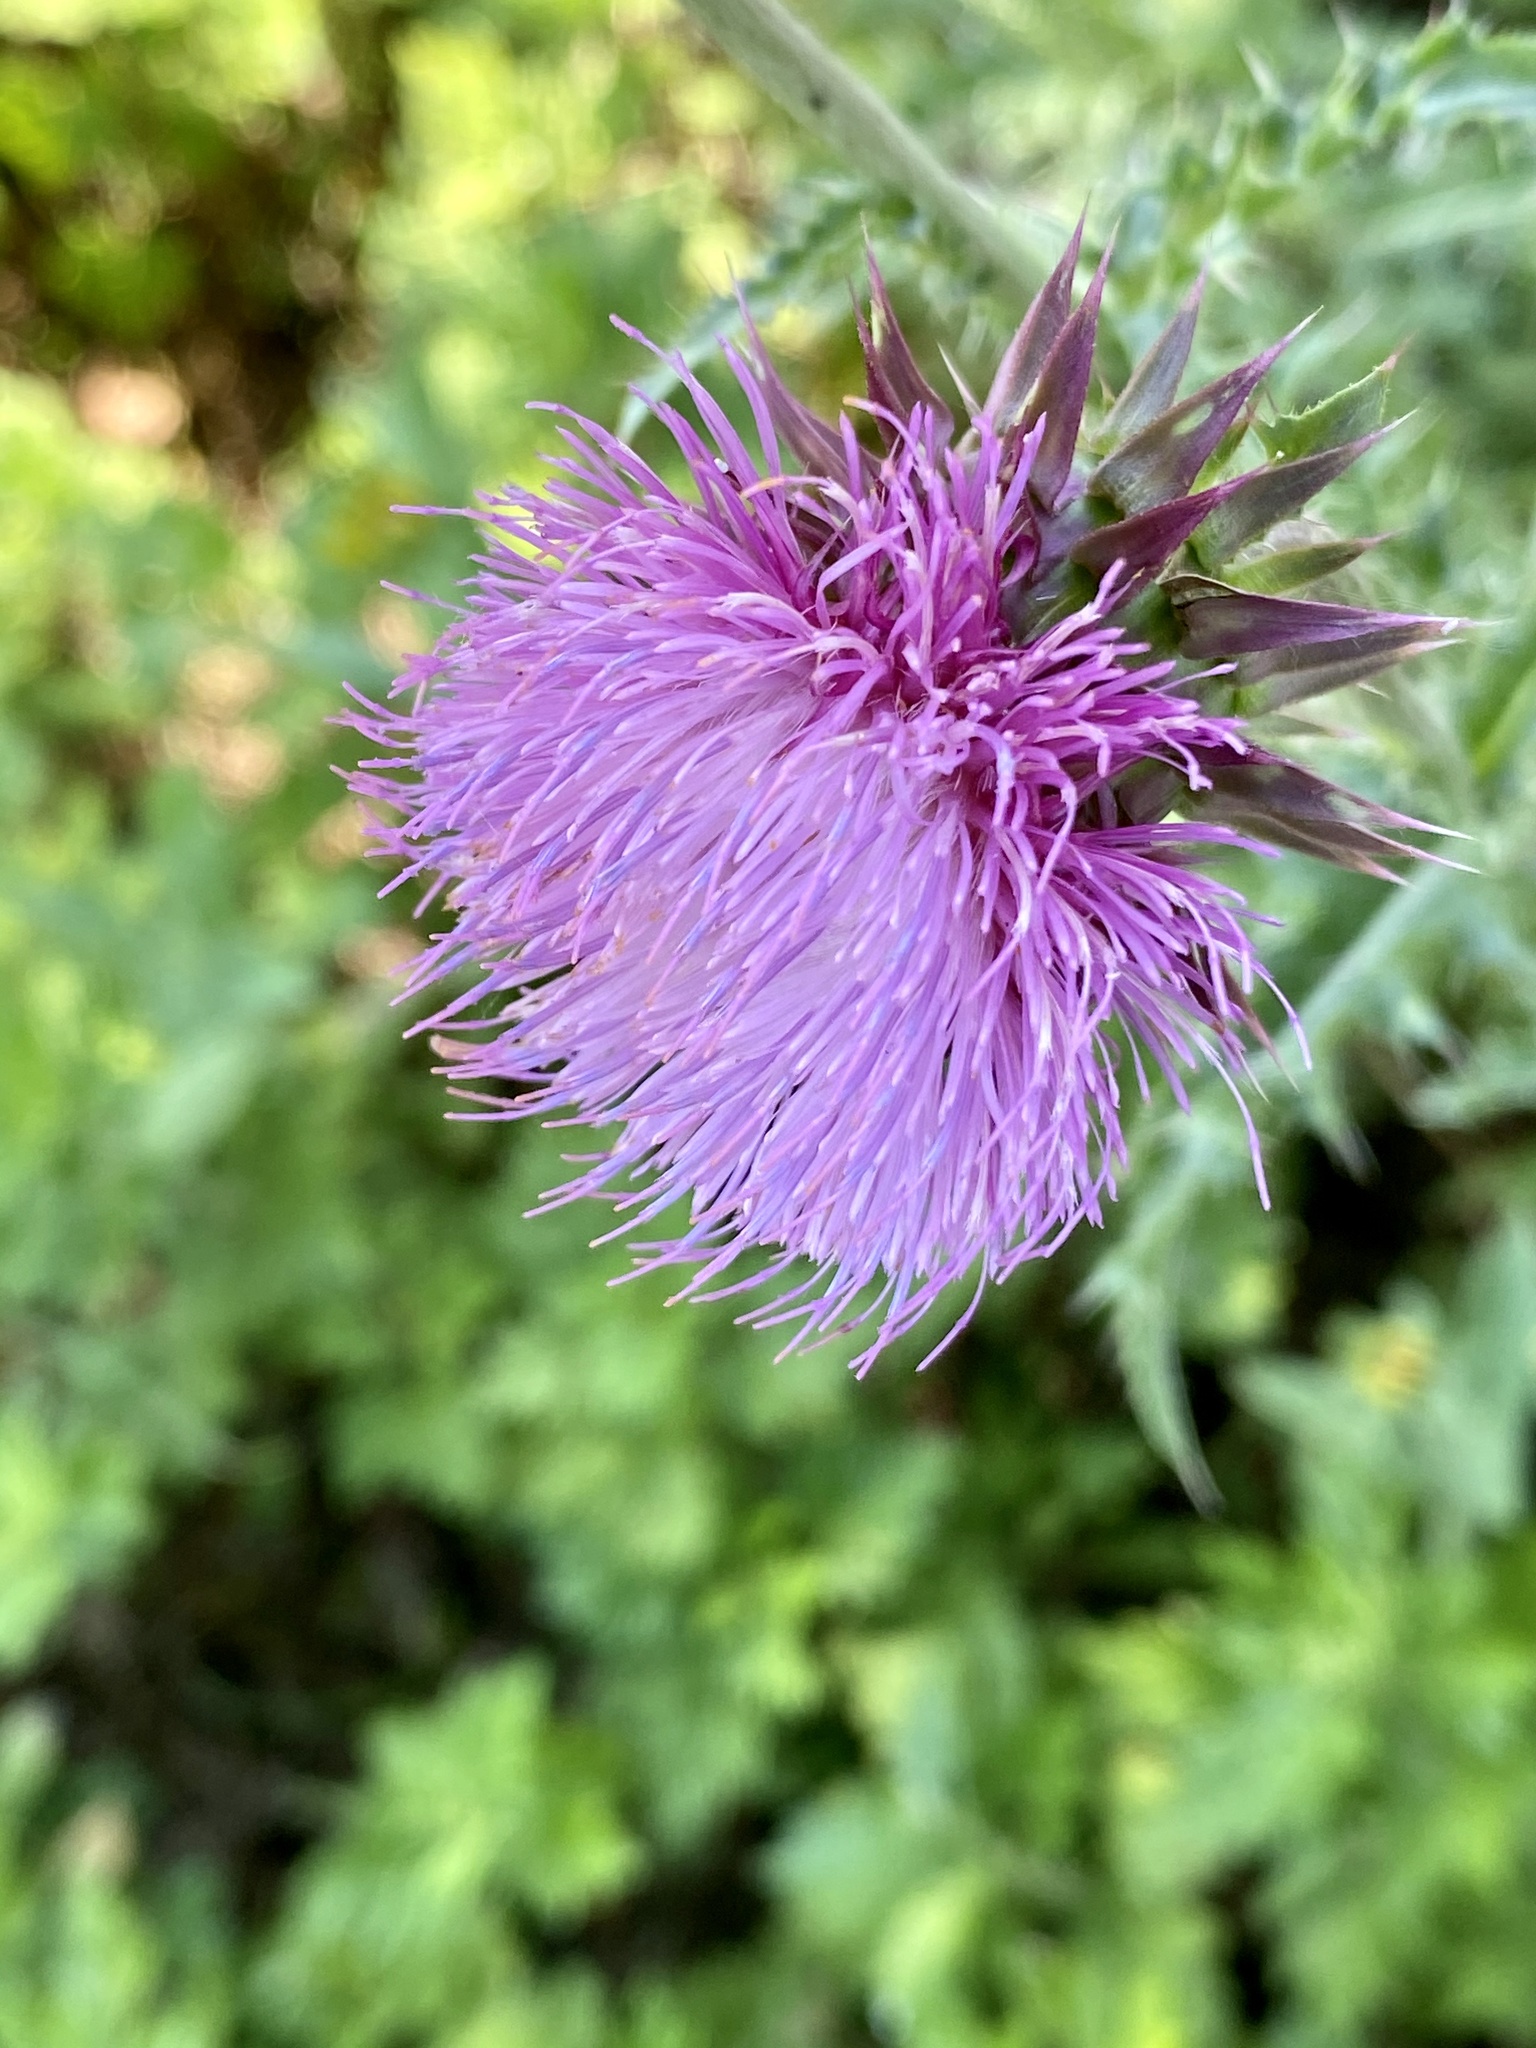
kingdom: Plantae
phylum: Tracheophyta
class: Magnoliopsida
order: Asterales
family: Asteraceae
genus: Carduus
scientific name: Carduus nutans
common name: Musk thistle
